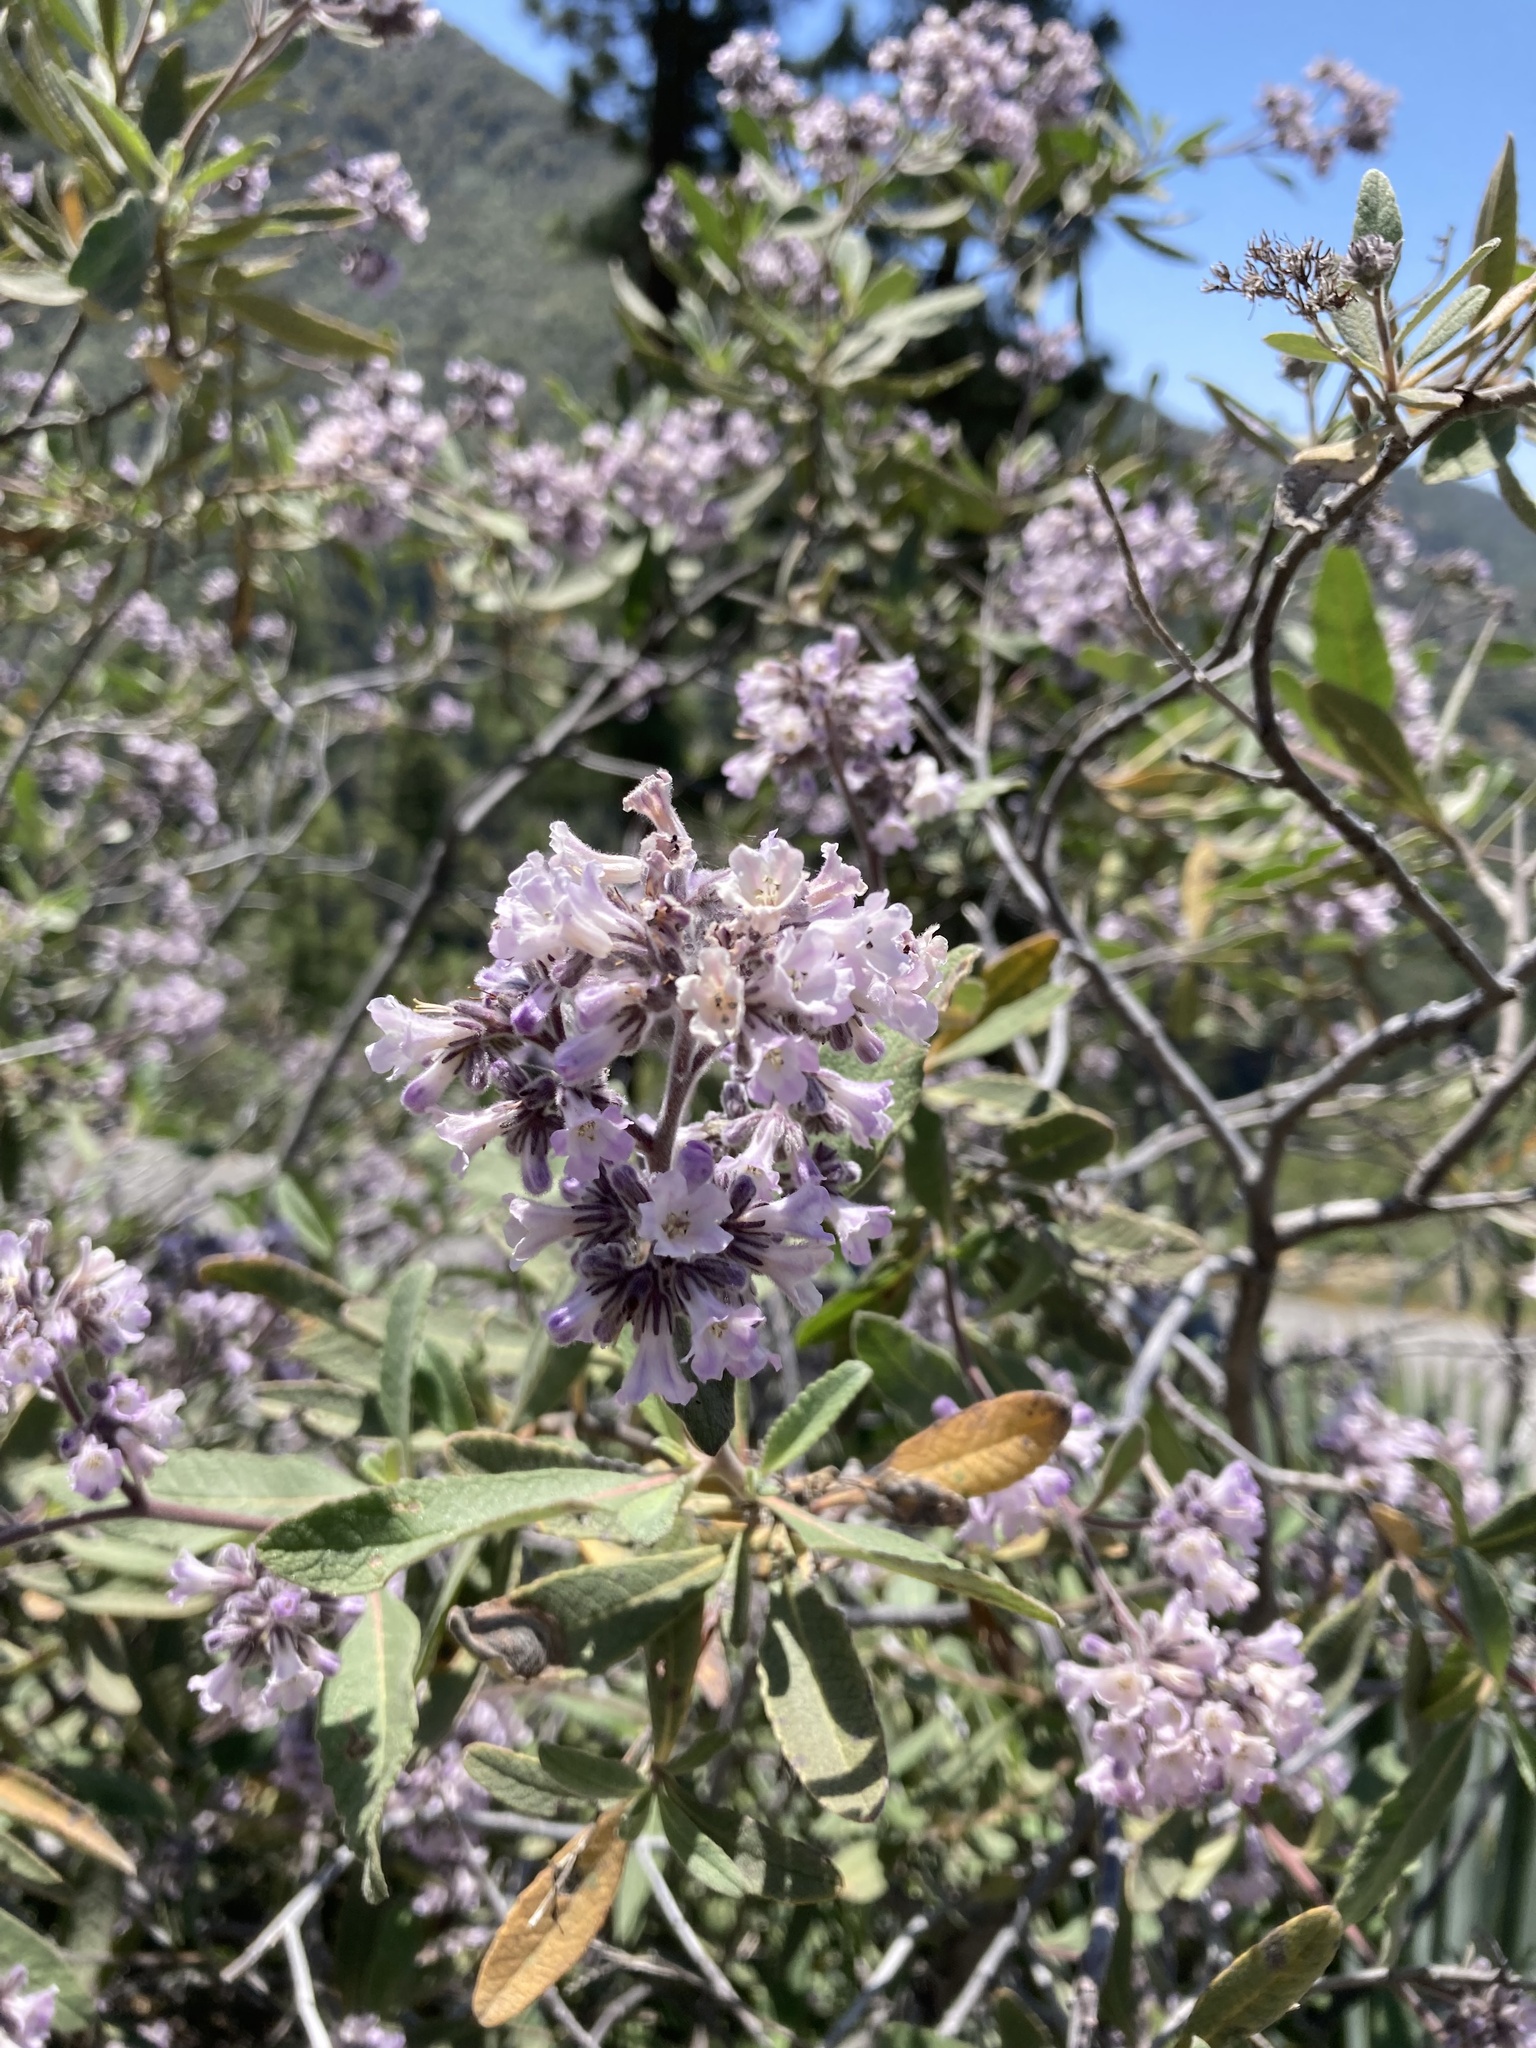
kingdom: Plantae
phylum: Tracheophyta
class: Magnoliopsida
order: Boraginales
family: Namaceae
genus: Eriodictyon
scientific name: Eriodictyon crassifolium
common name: Thick-leaf yerba-santa
